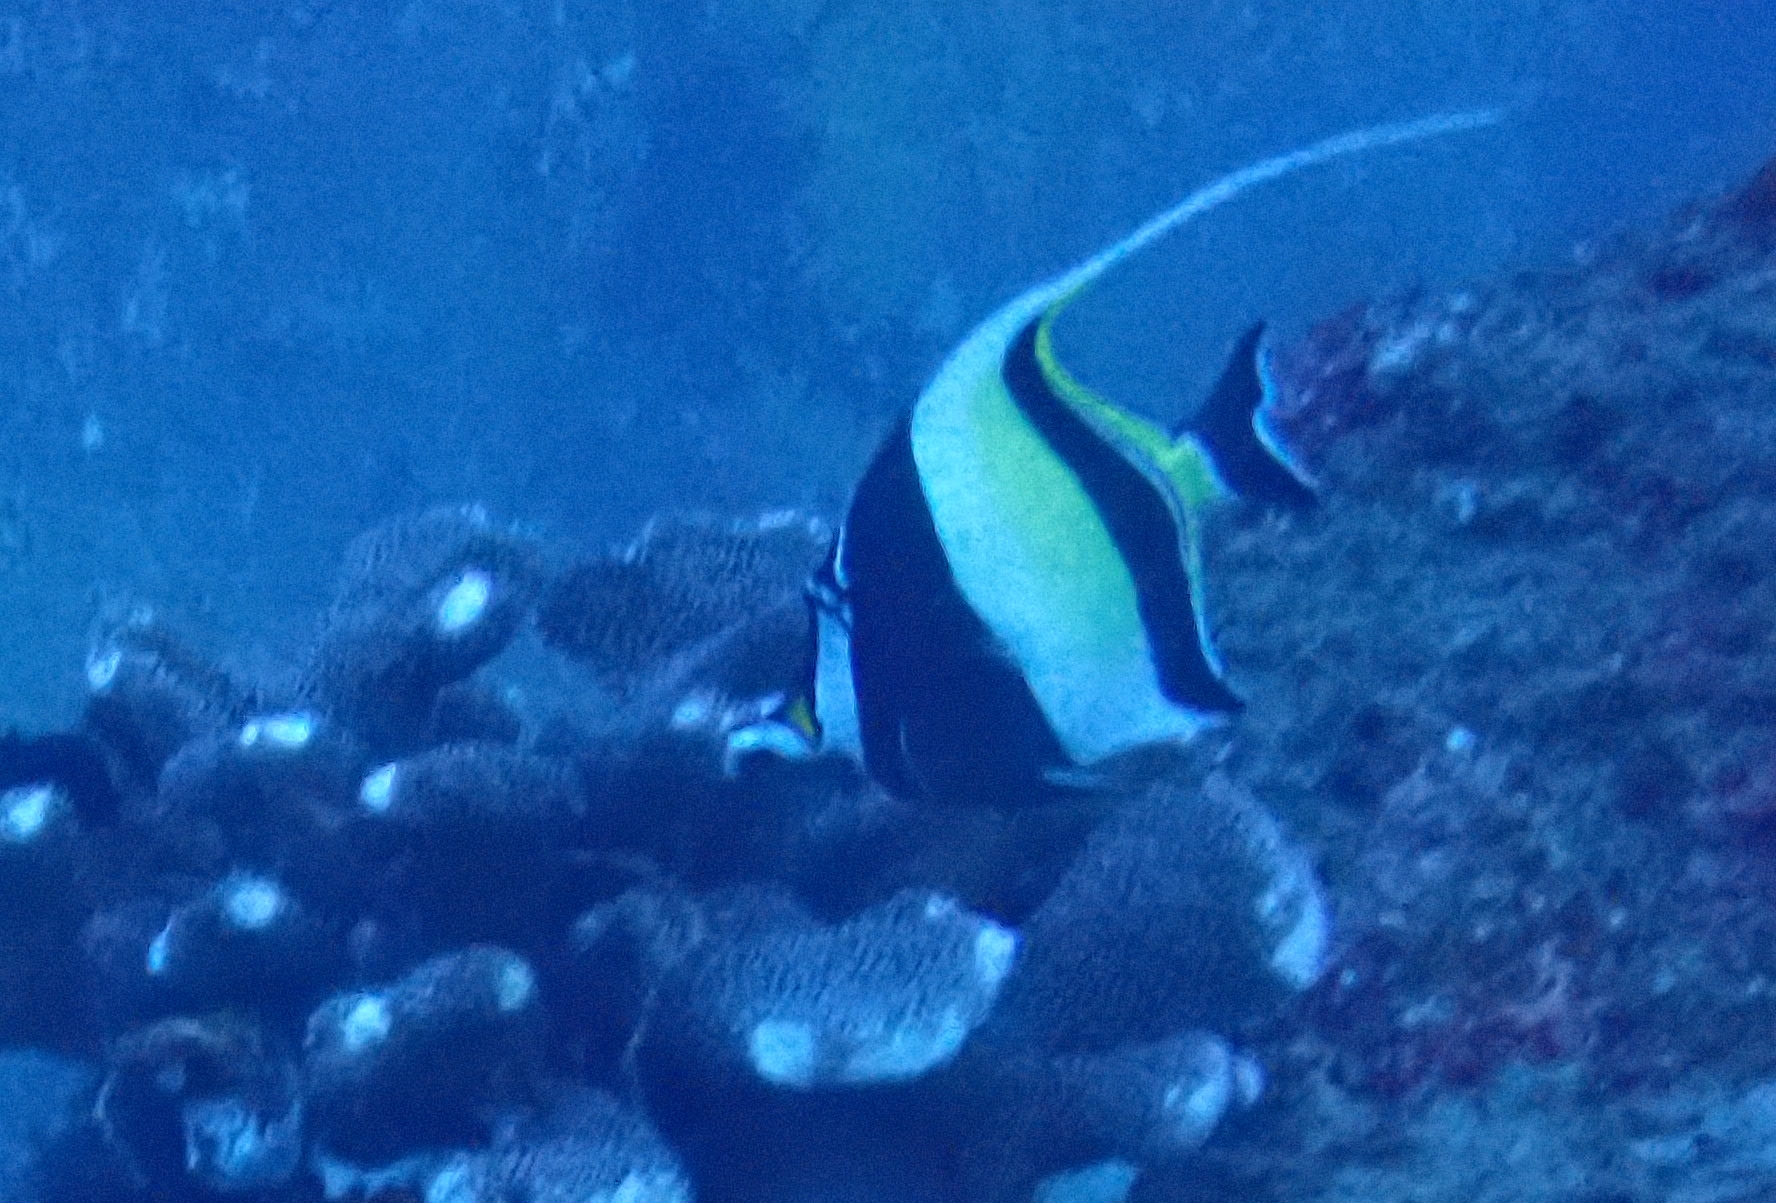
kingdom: Animalia
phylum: Chordata
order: Perciformes
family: Zanclidae
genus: Zanclus
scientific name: Zanclus cornutus
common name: Moorish idol
